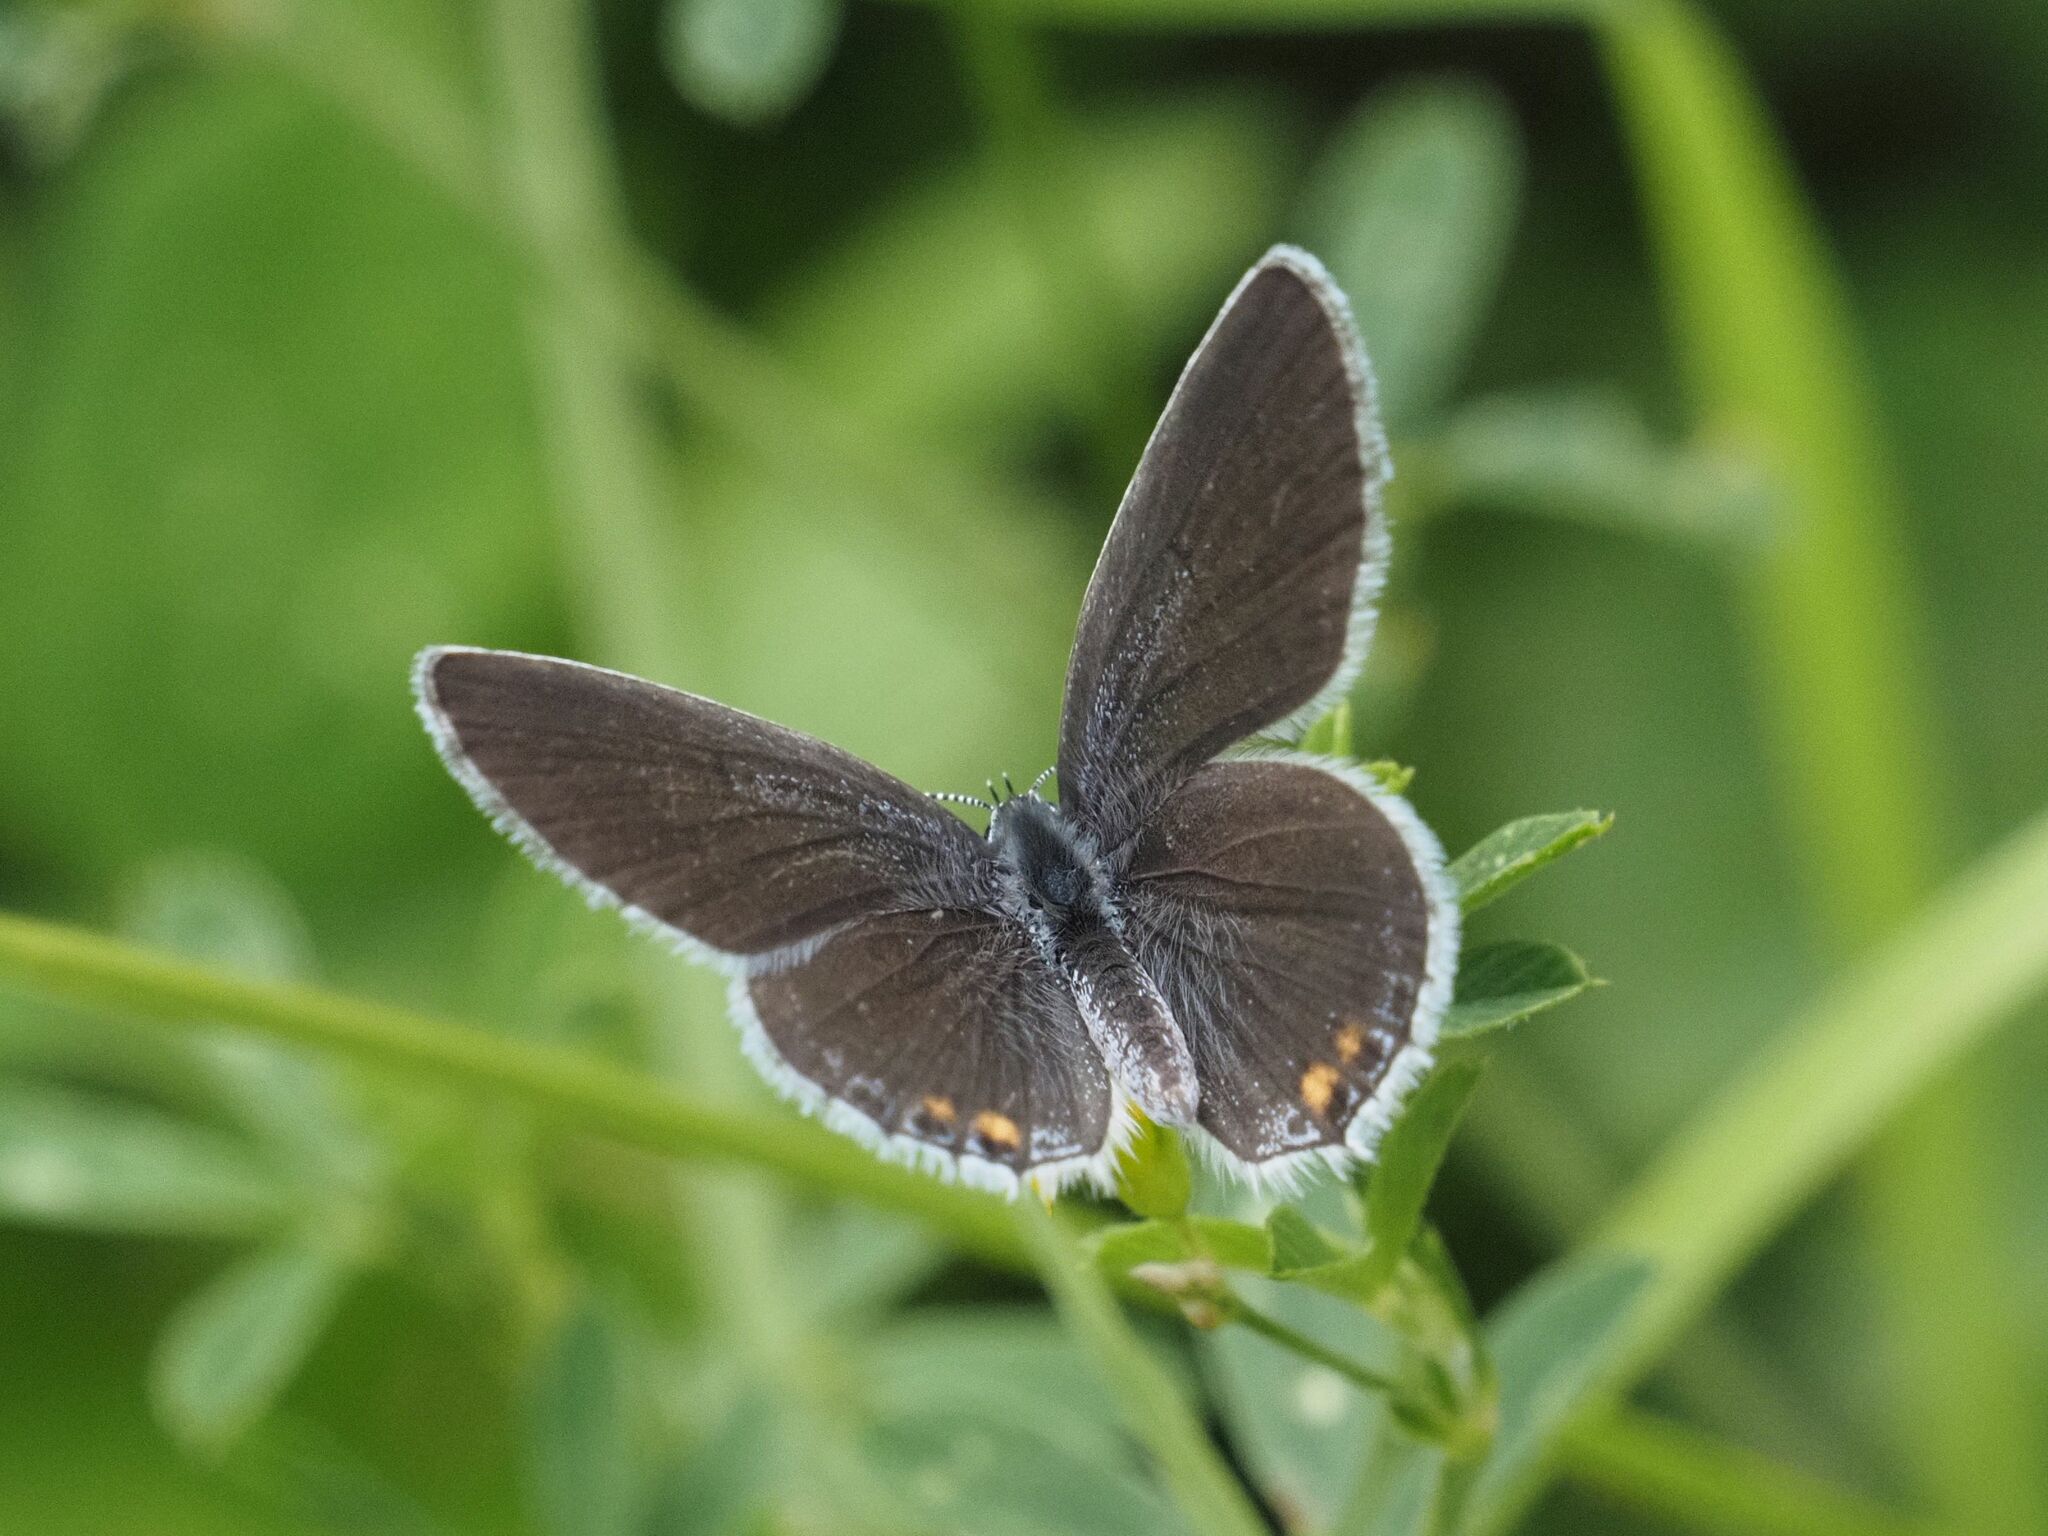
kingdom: Animalia
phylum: Arthropoda
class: Insecta
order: Lepidoptera
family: Lycaenidae
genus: Elkalyce
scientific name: Elkalyce argiades
